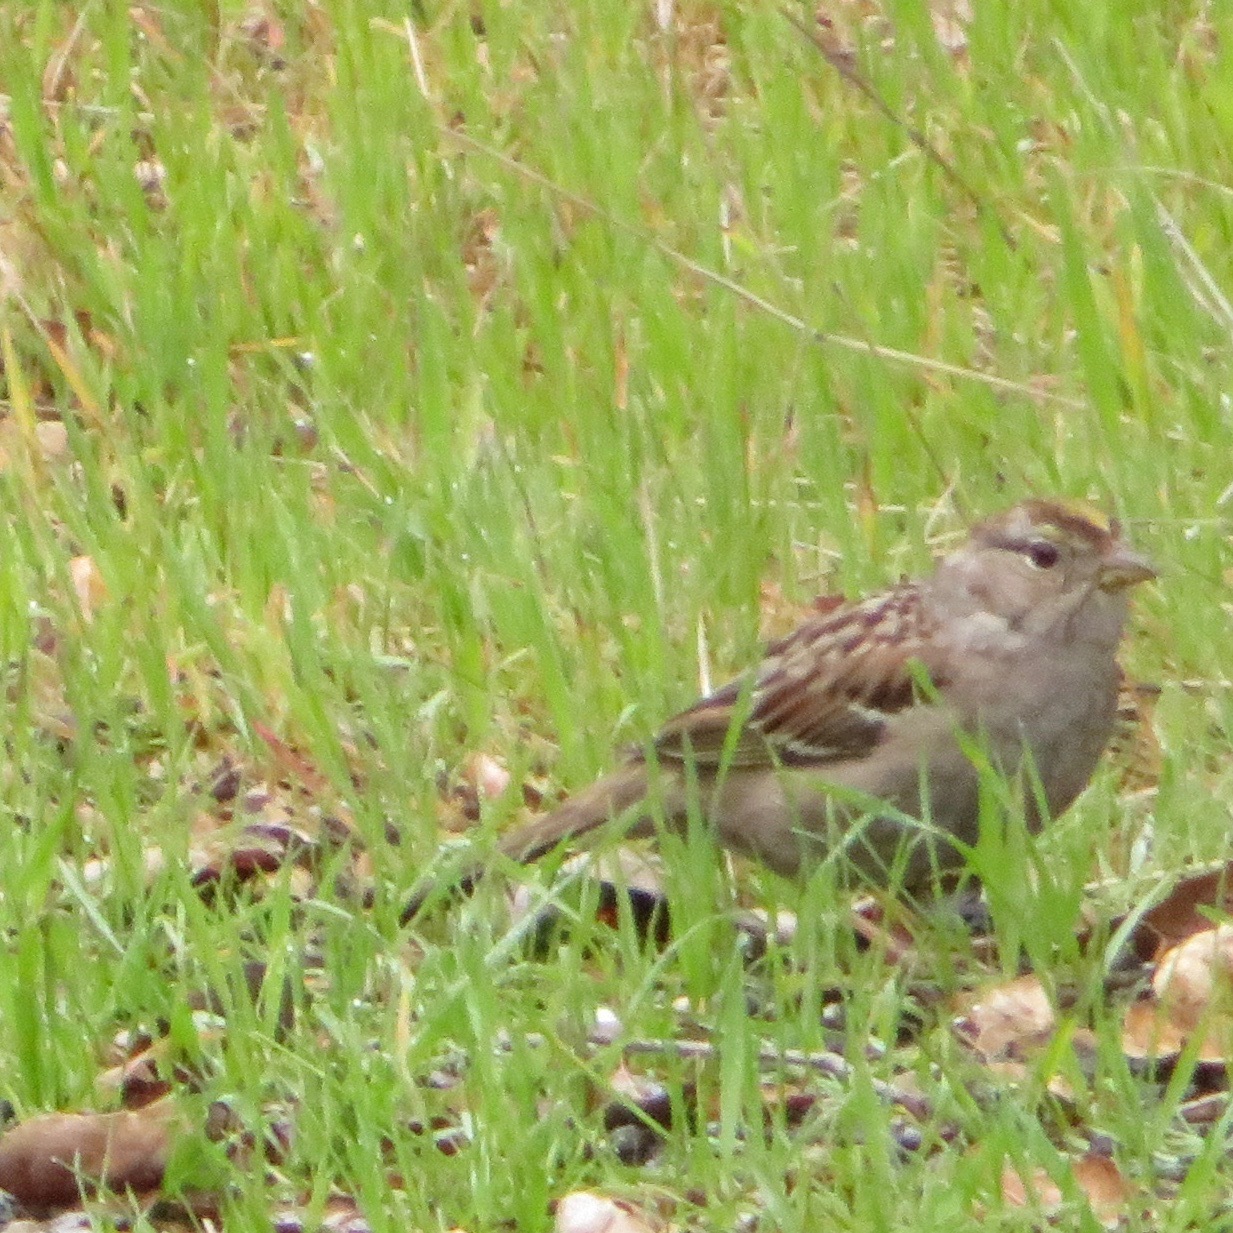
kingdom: Animalia
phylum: Chordata
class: Aves
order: Passeriformes
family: Passerellidae
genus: Zonotrichia
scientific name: Zonotrichia atricapilla
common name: Golden-crowned sparrow
